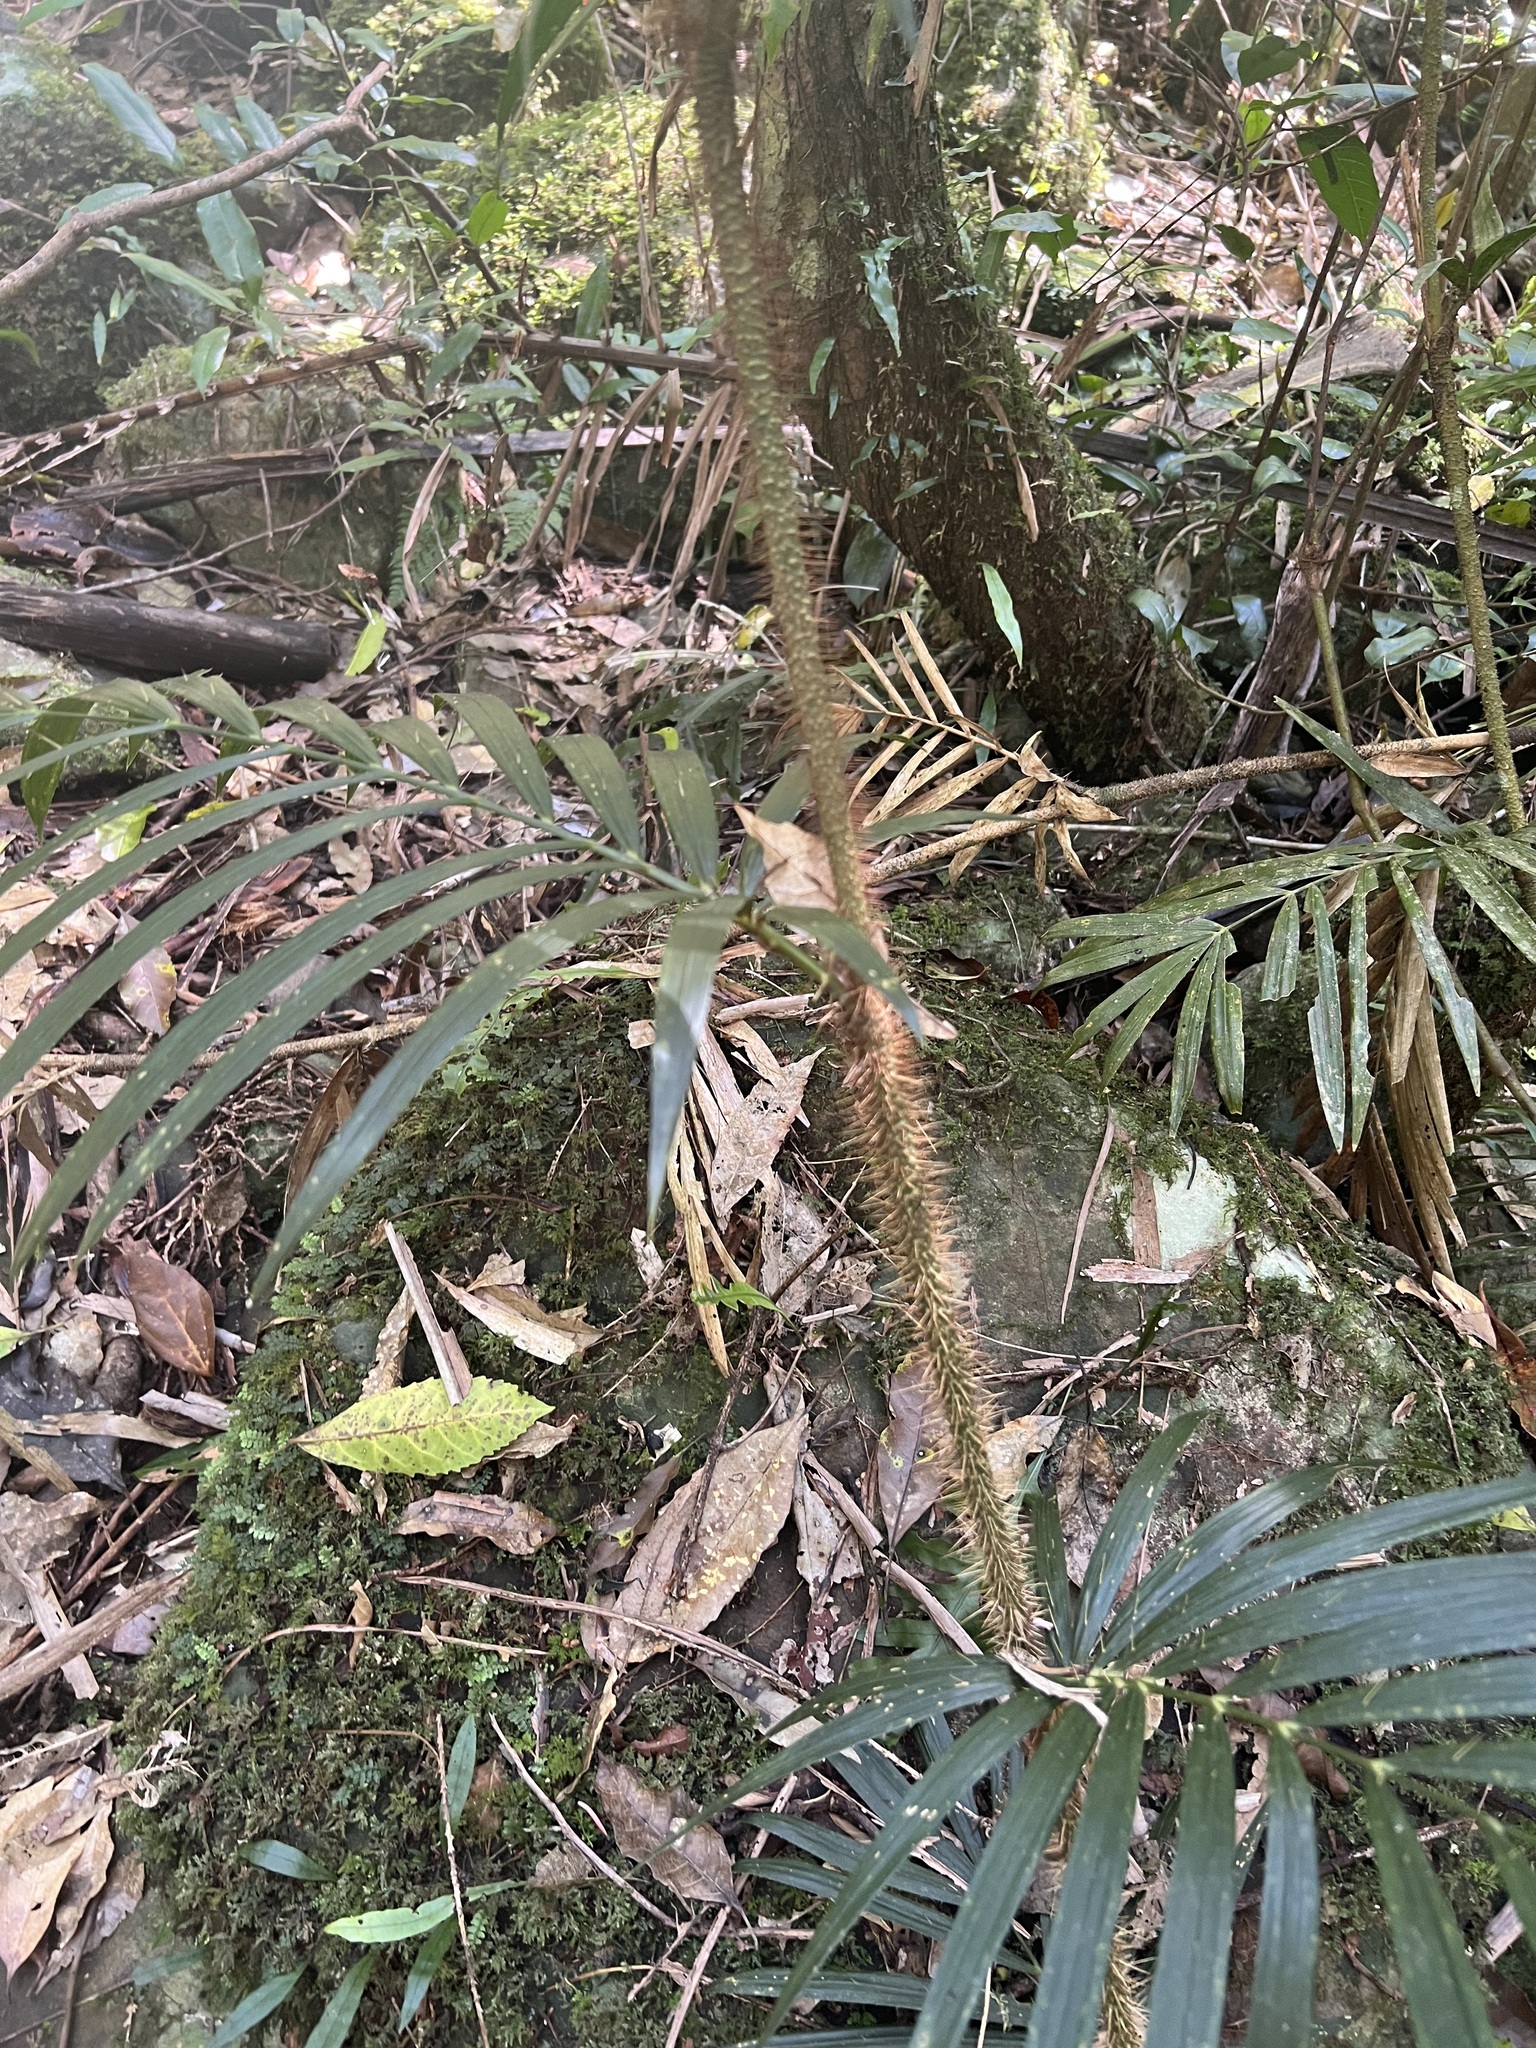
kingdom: Plantae
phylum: Tracheophyta
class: Liliopsida
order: Arecales
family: Arecaceae
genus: Calamus
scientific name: Calamus muelleri
